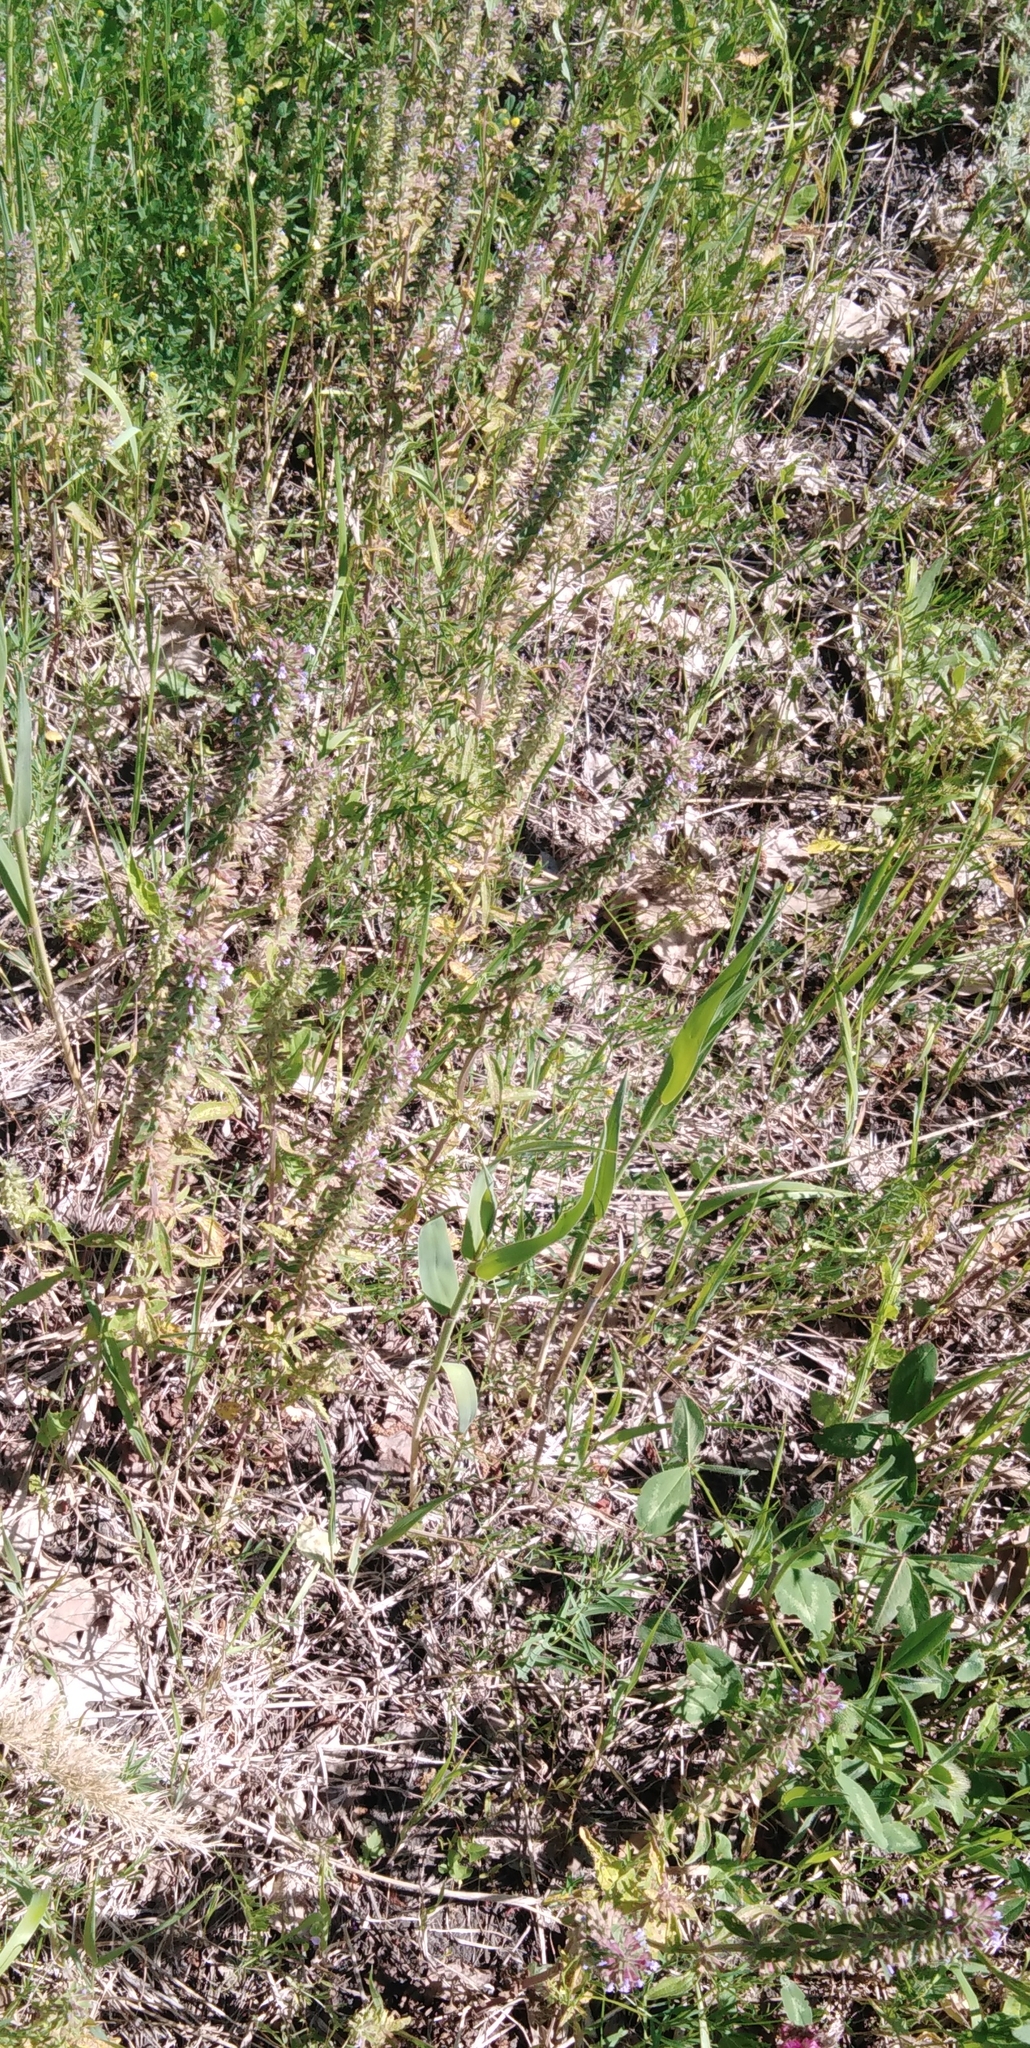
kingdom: Plantae
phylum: Tracheophyta
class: Magnoliopsida
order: Lamiales
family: Lamiaceae
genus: Dracocephalum
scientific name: Dracocephalum thymiflorum
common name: Thymeleaf dragonhead
